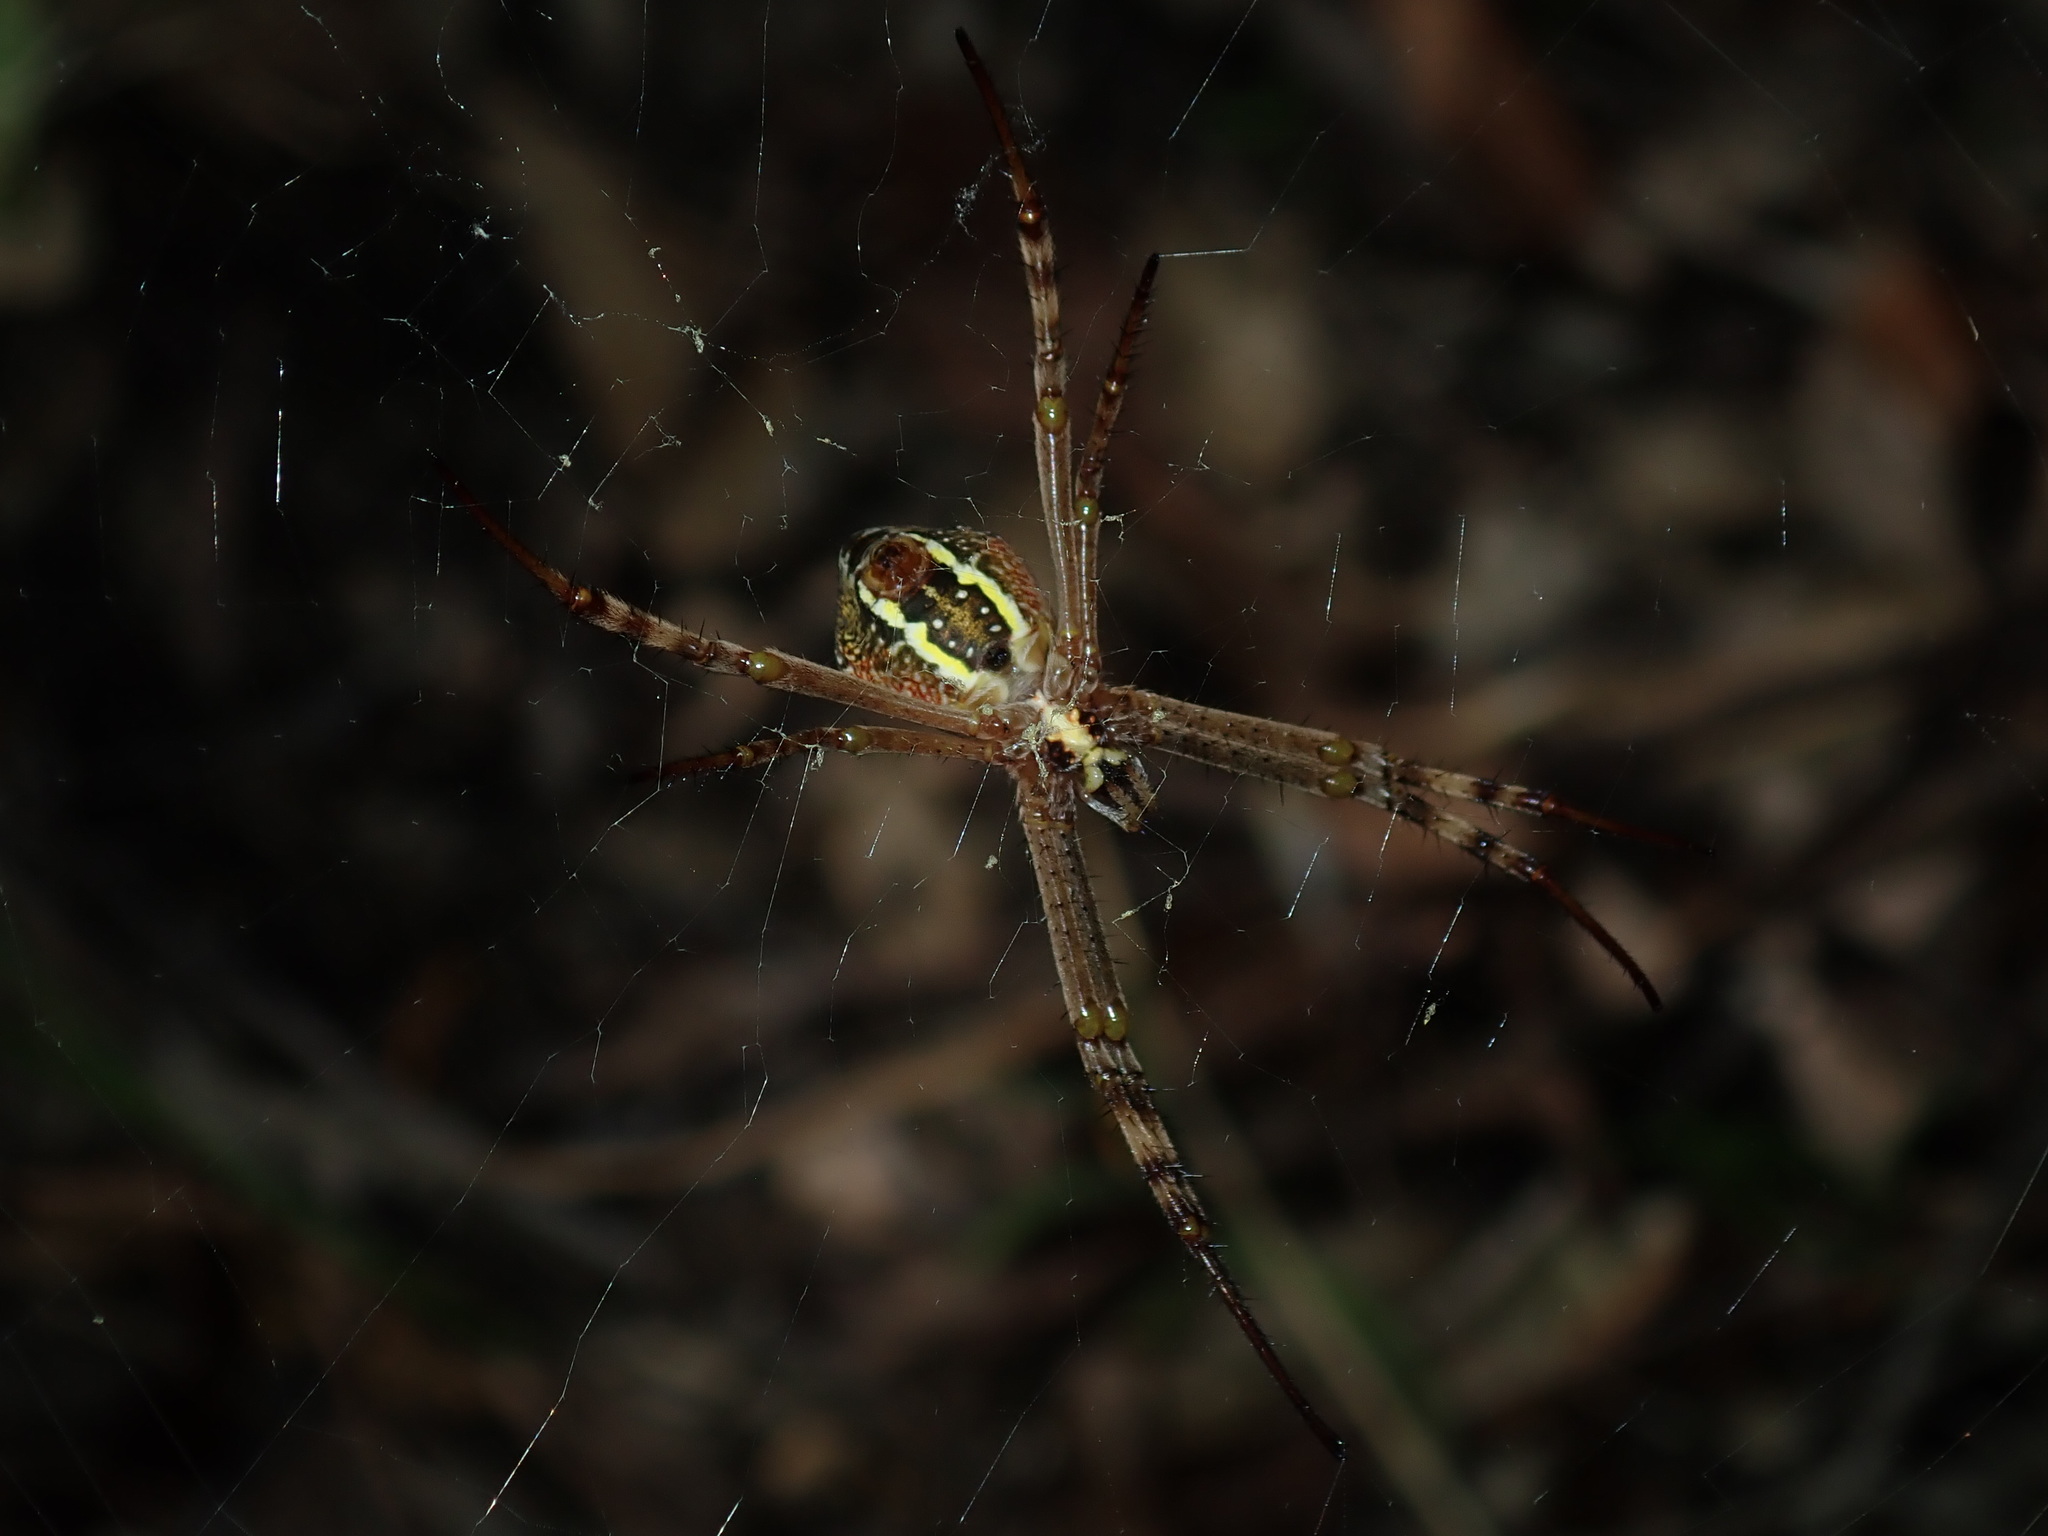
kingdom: Animalia
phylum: Arthropoda
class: Arachnida
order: Araneae
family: Araneidae
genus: Argiope
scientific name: Argiope keyserlingi
